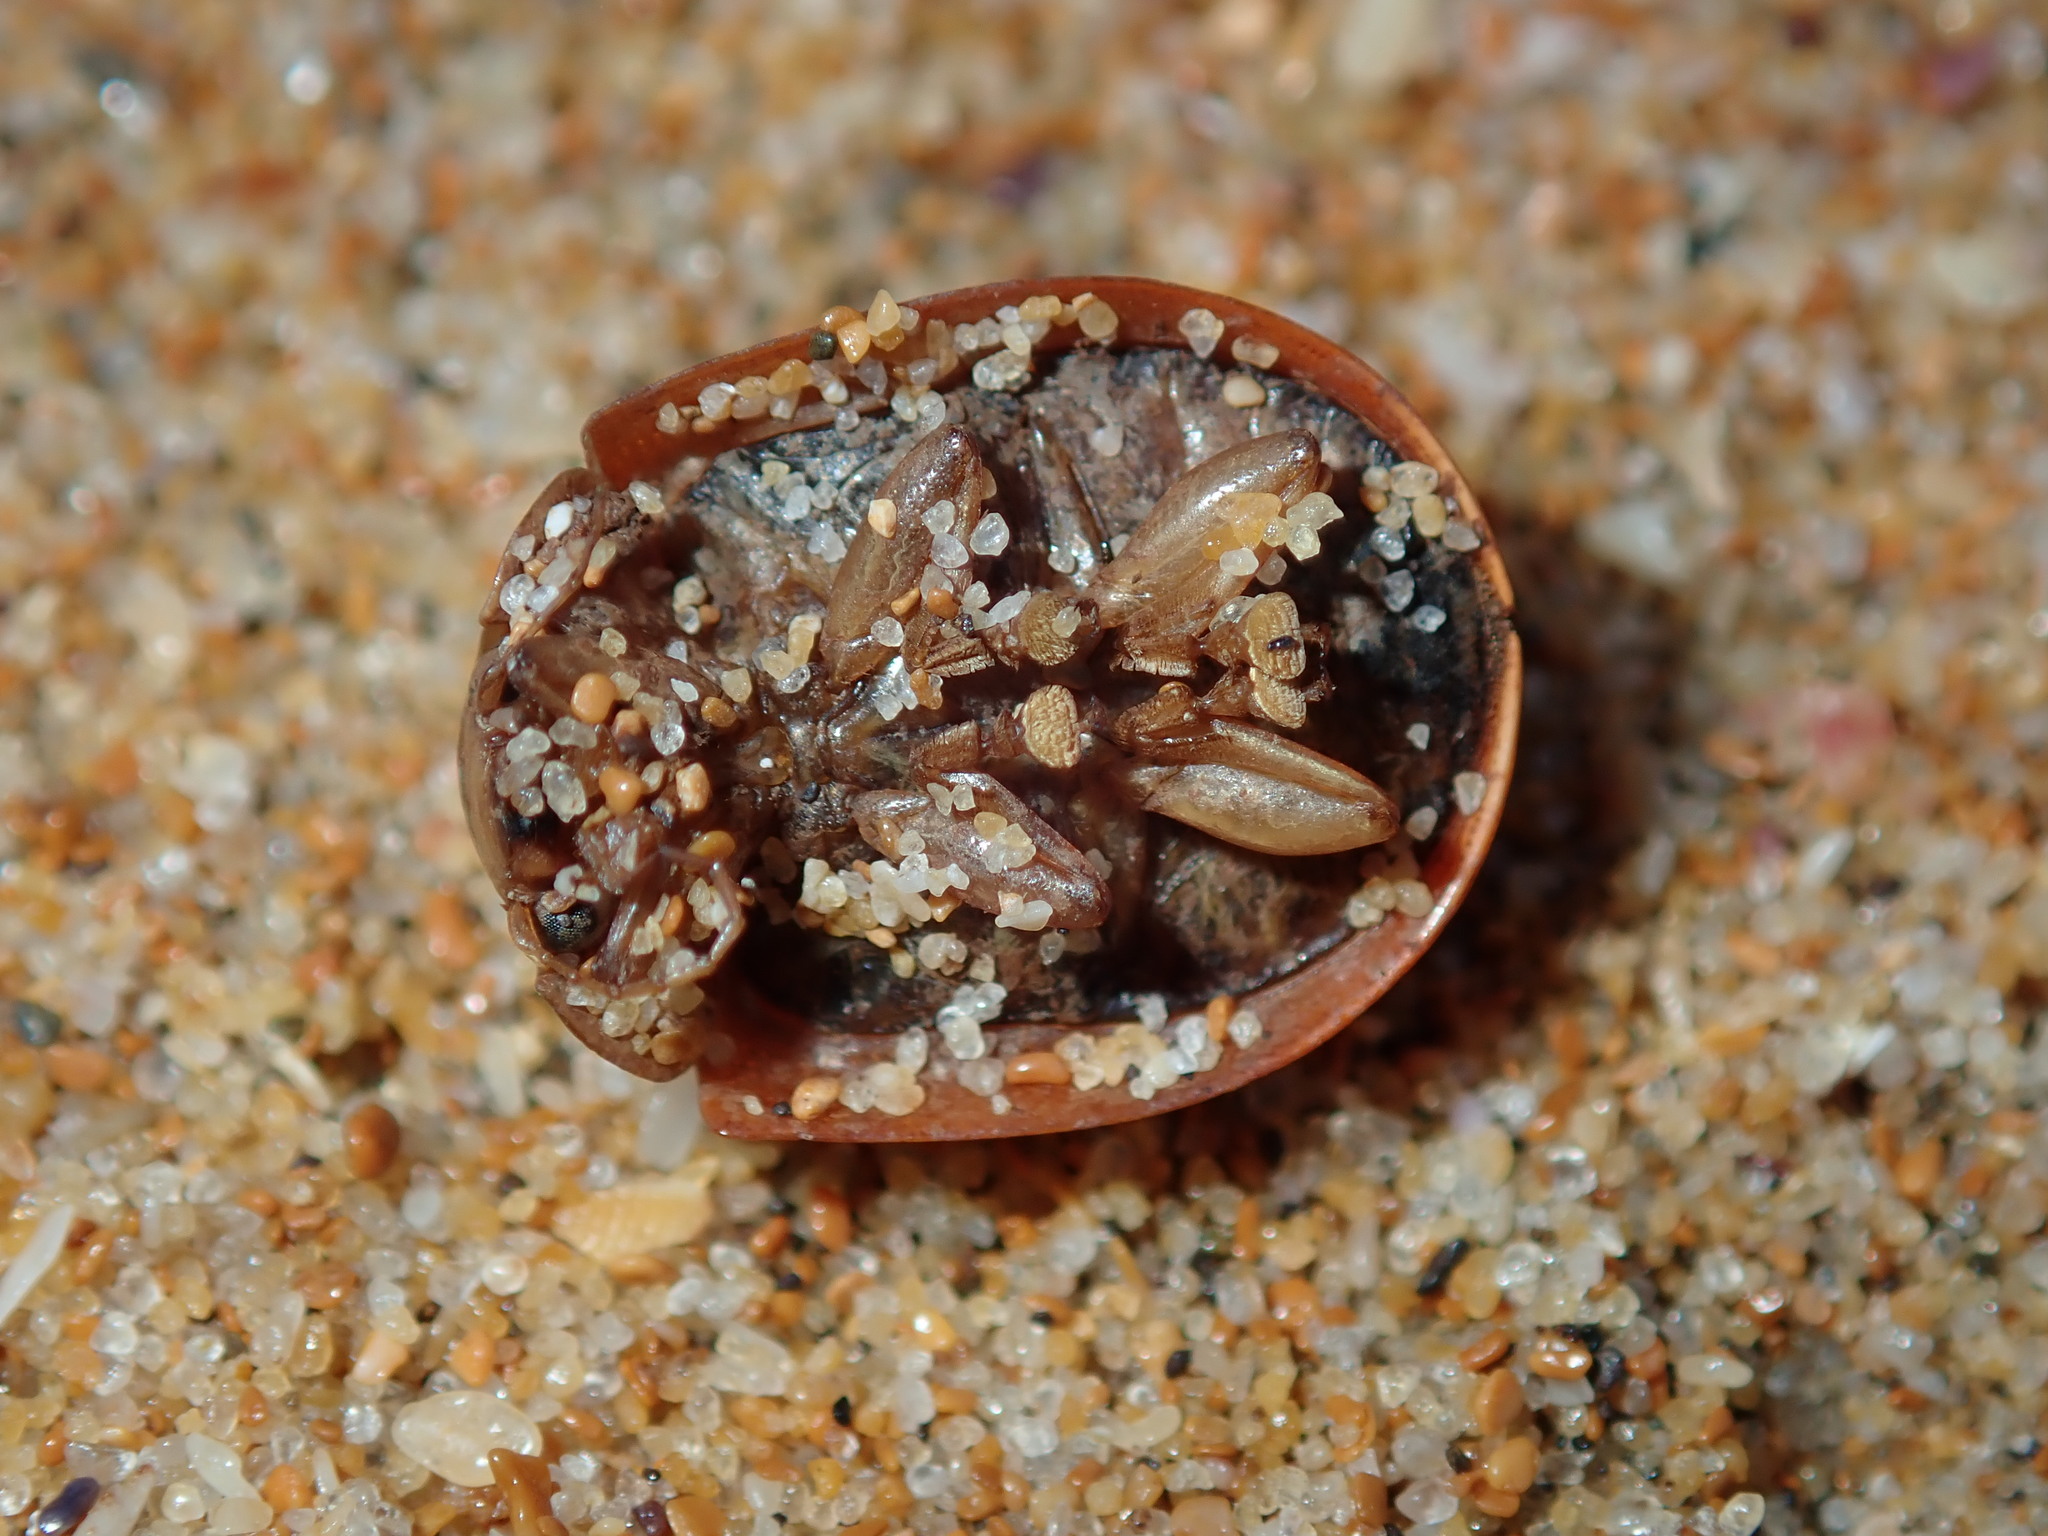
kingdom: Animalia
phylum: Arthropoda
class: Insecta
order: Coleoptera
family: Chrysomelidae
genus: Paropsisterna
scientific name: Paropsisterna
